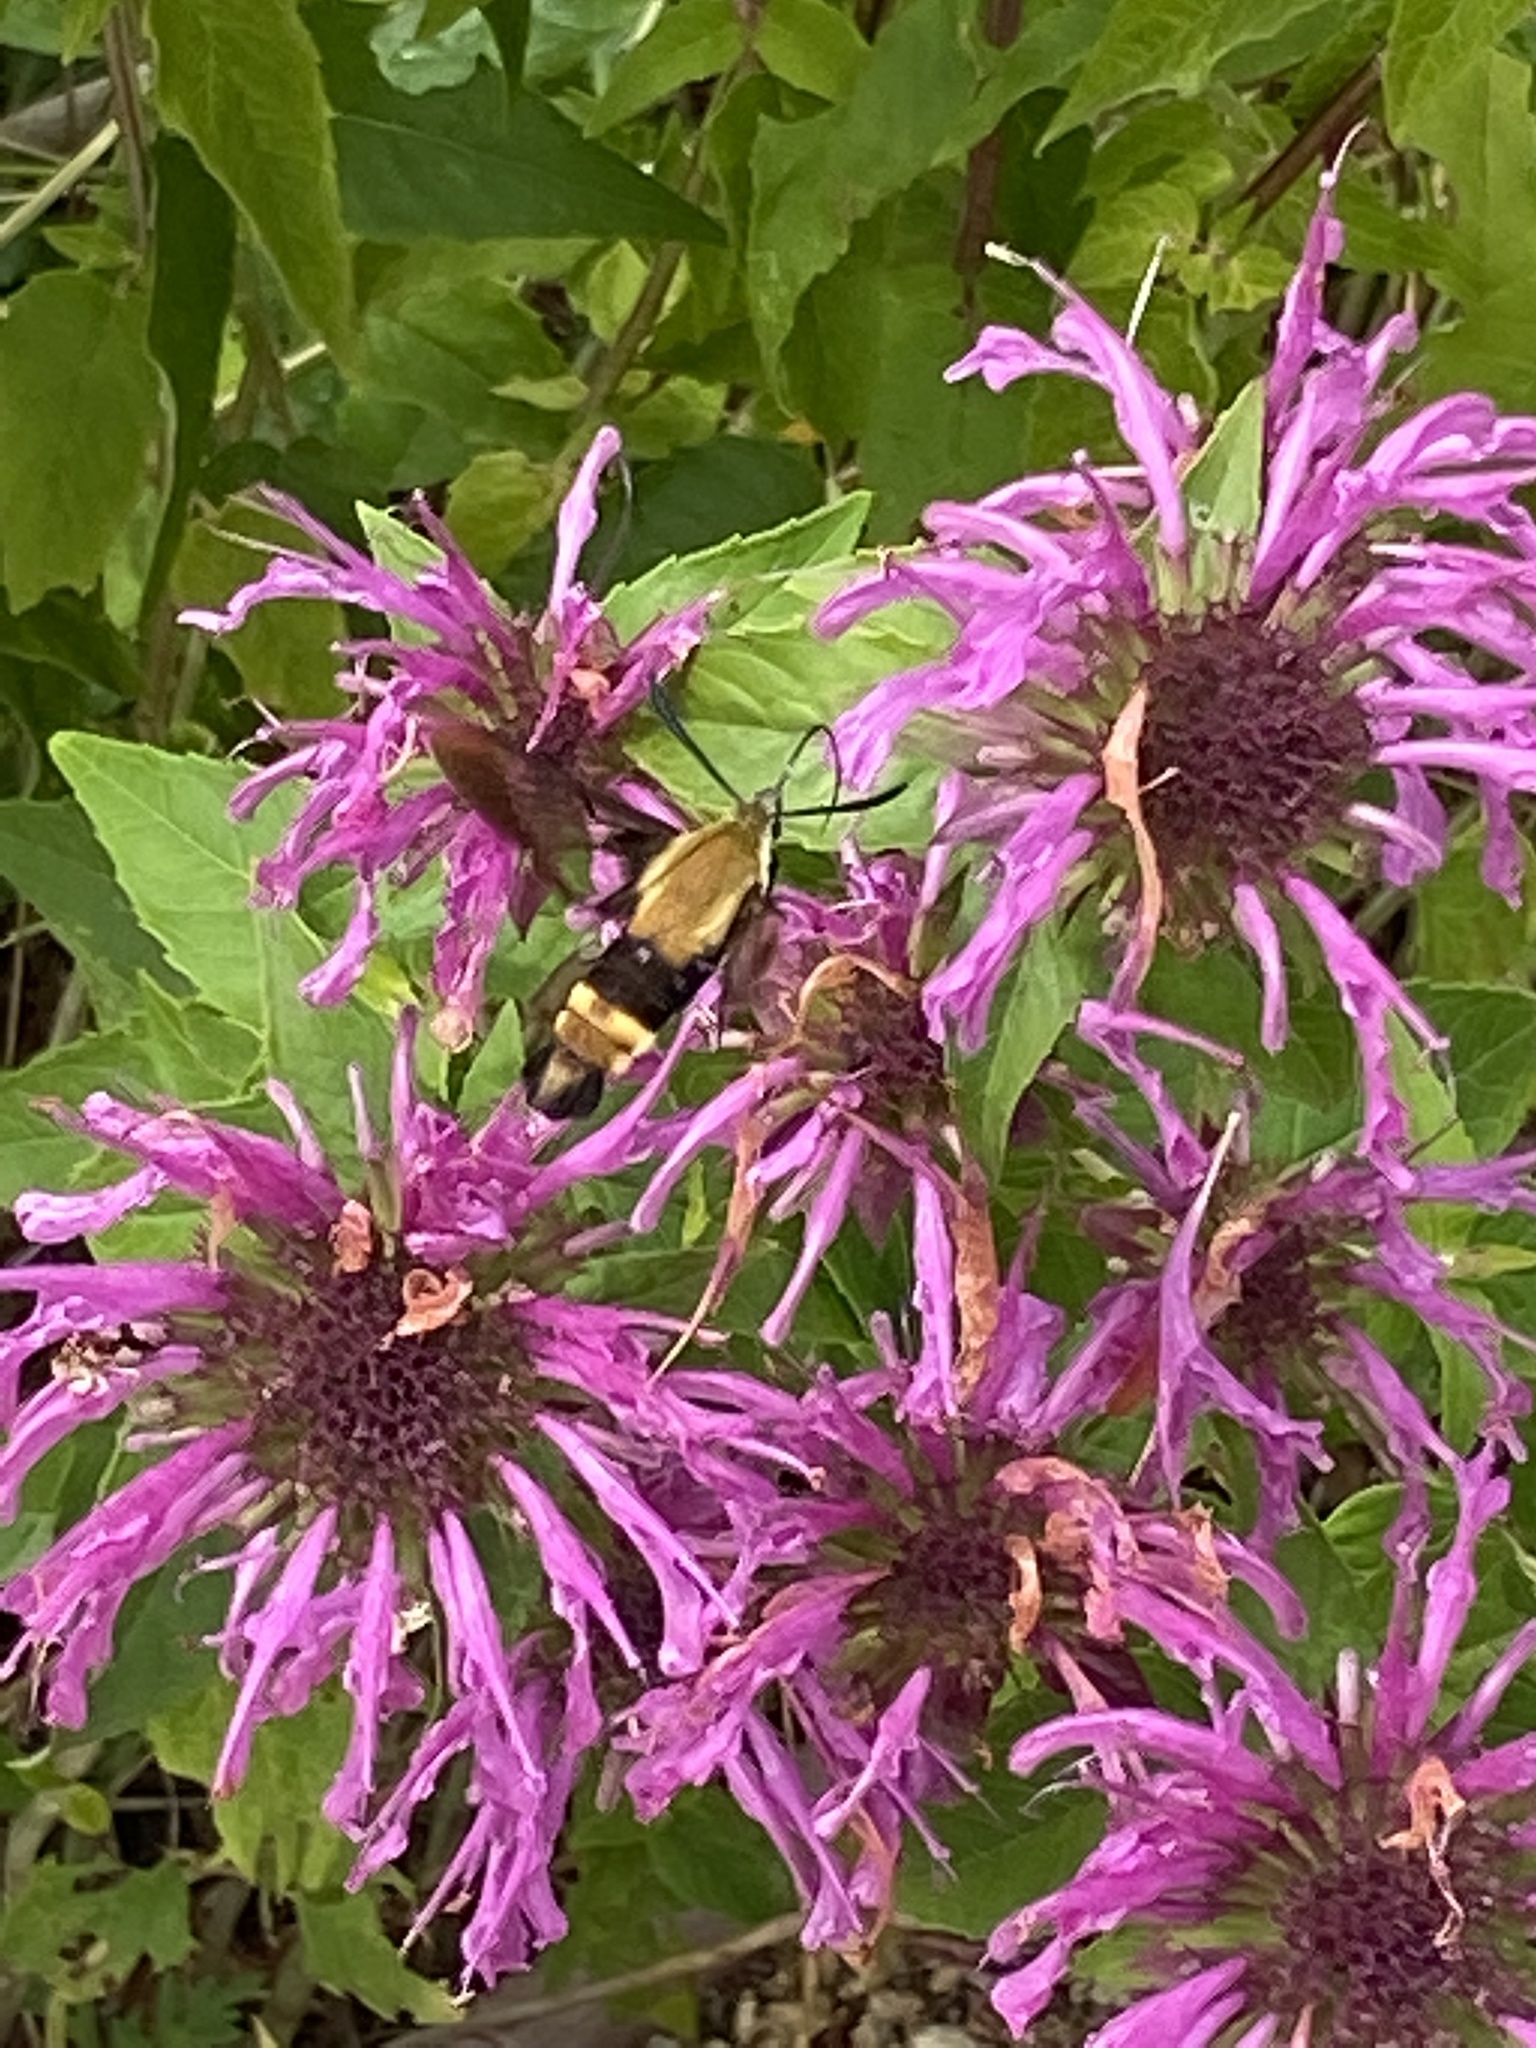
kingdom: Animalia
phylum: Arthropoda
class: Insecta
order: Lepidoptera
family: Sphingidae
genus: Hemaris
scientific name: Hemaris diffinis
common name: Bumblebee moth
